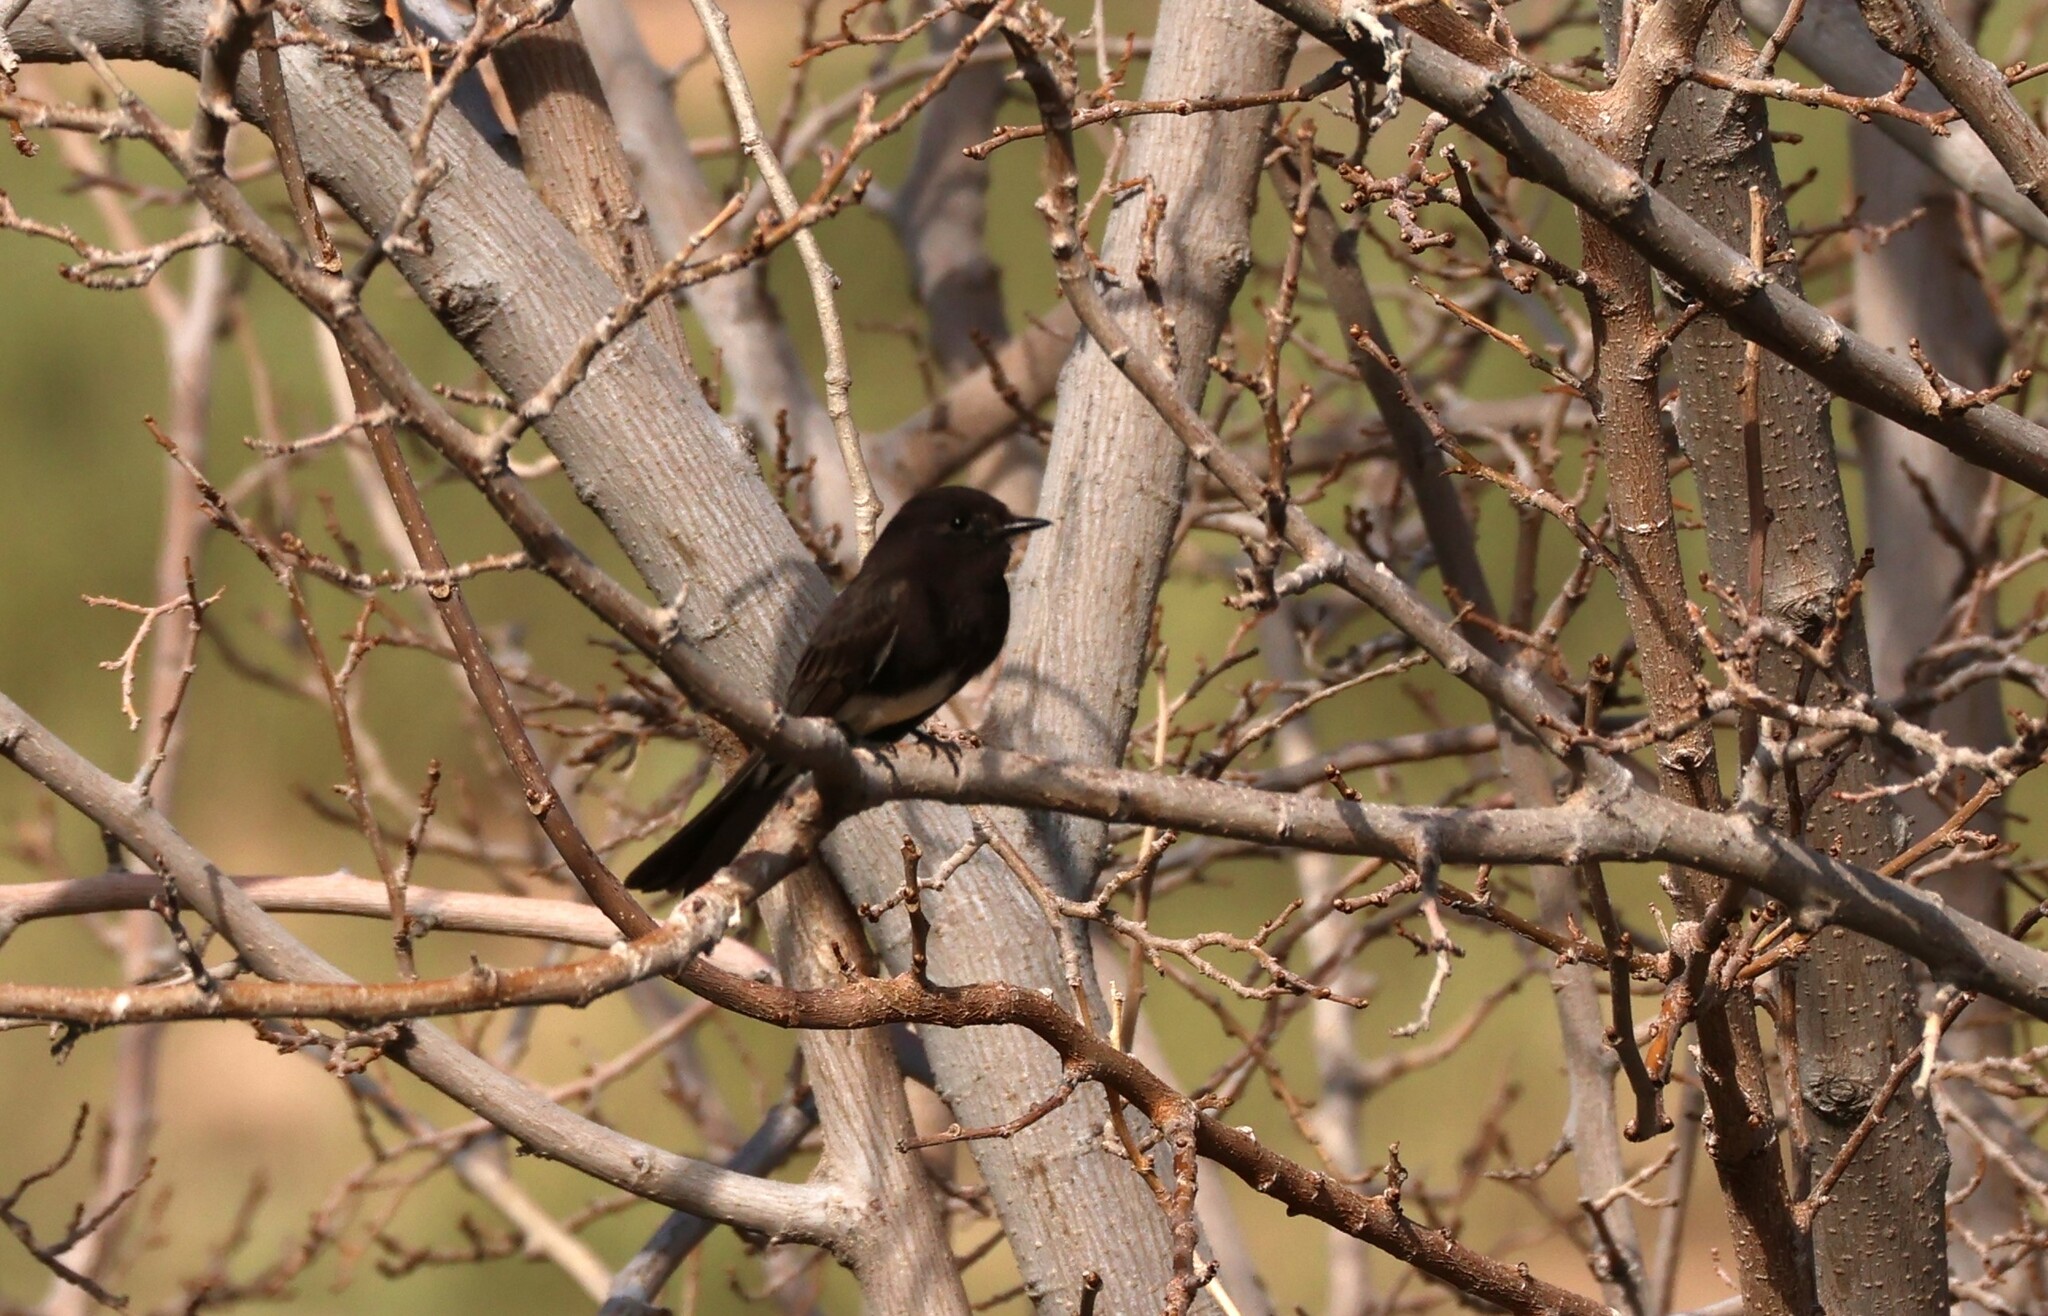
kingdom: Animalia
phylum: Chordata
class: Aves
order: Passeriformes
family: Tyrannidae
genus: Sayornis
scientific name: Sayornis nigricans
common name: Black phoebe
